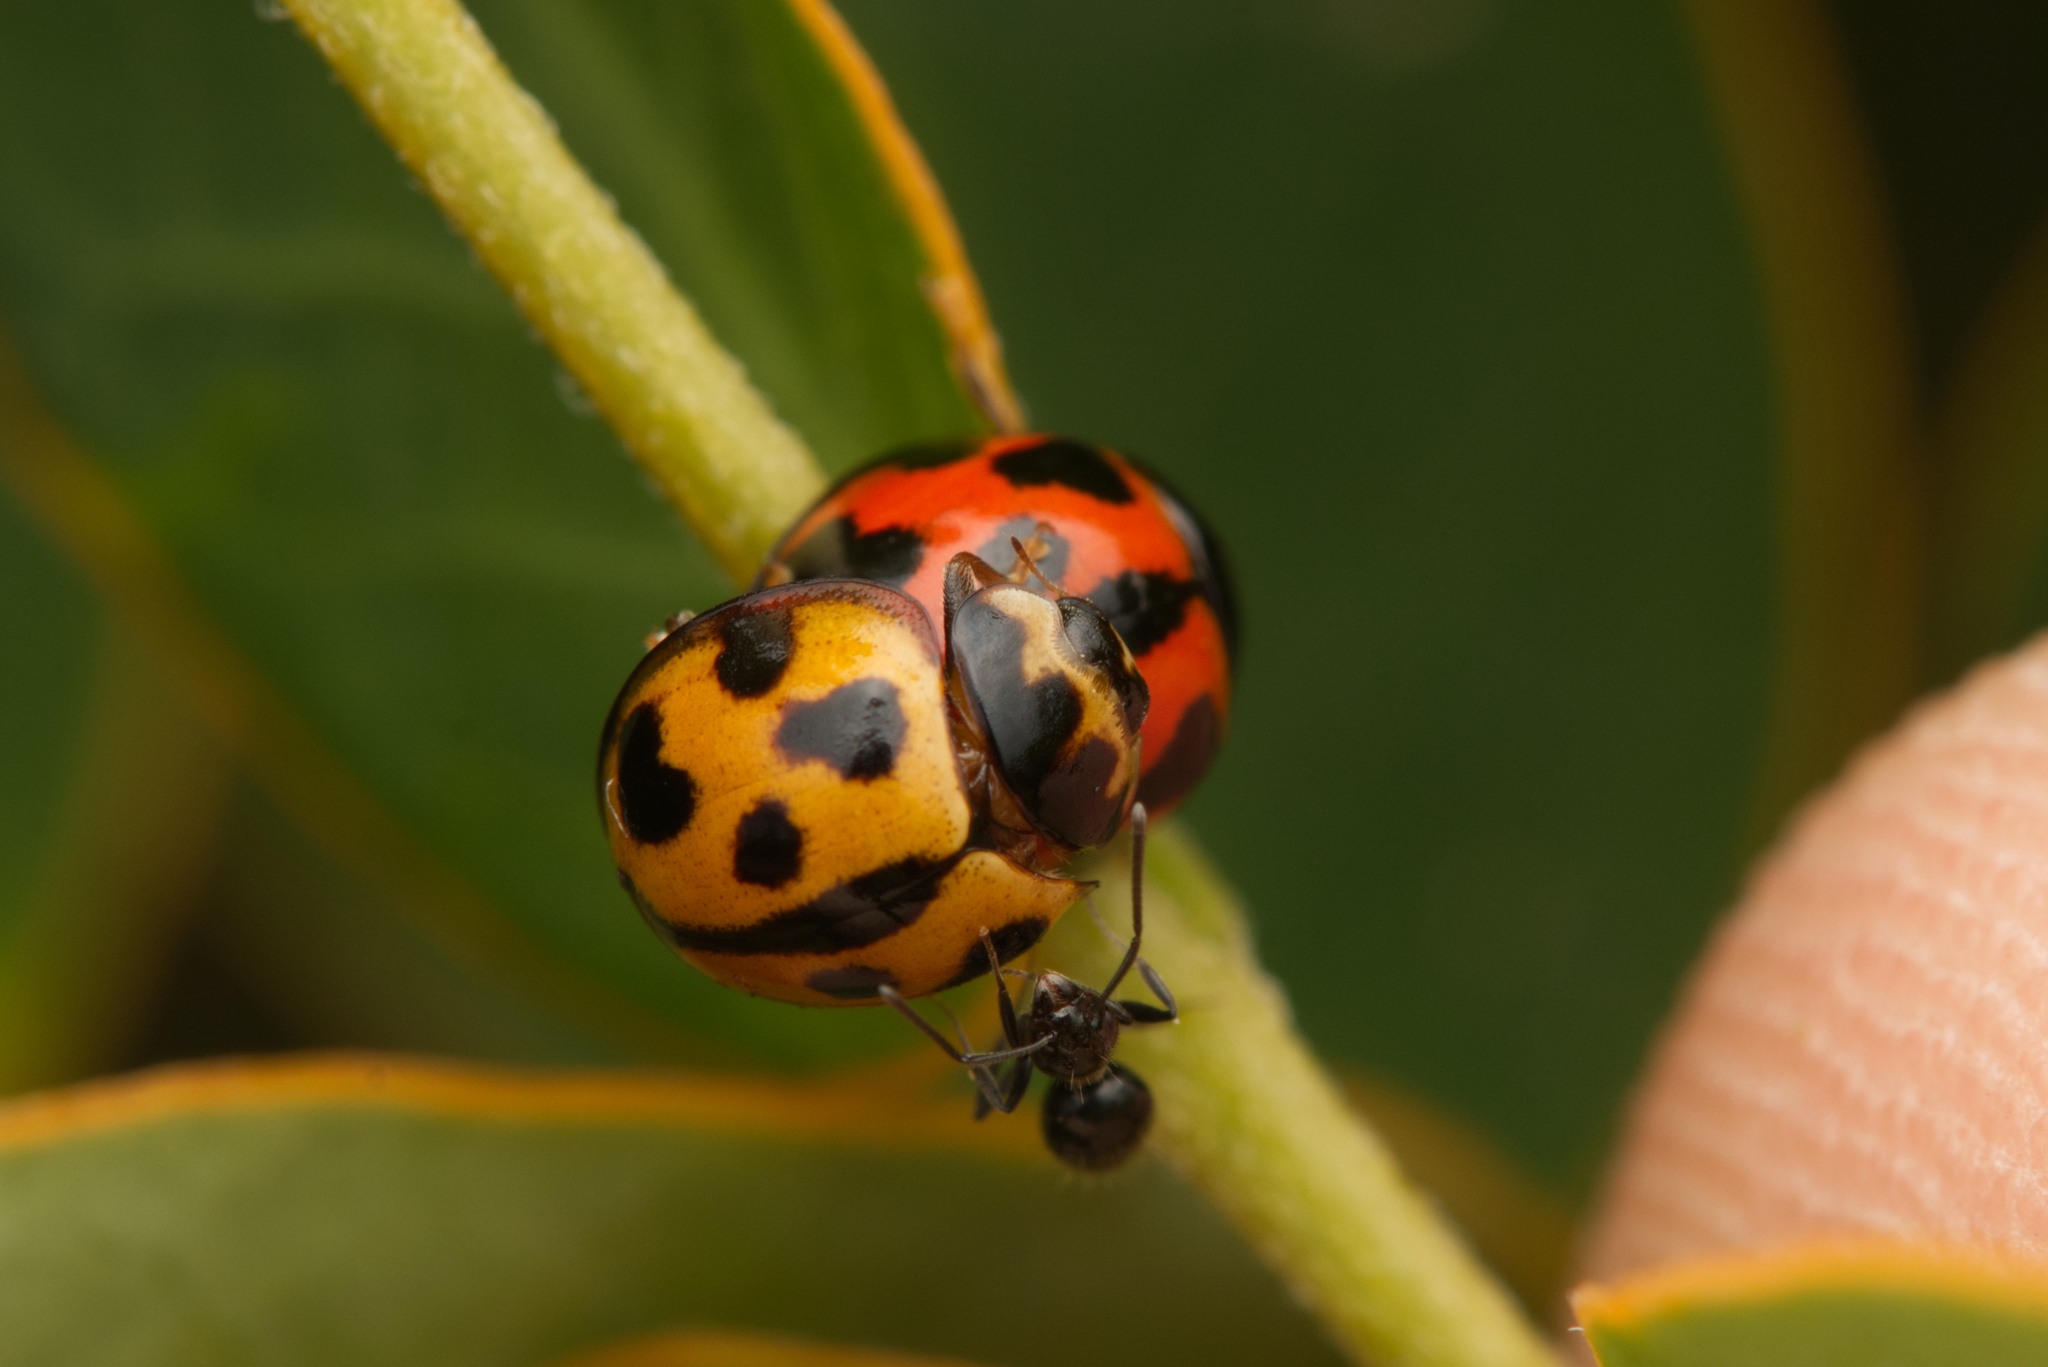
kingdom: Animalia
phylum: Arthropoda
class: Insecta
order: Coleoptera
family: Coccinellidae
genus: Coelophora
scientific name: Coelophora inaequalis
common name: Common australian lady beetle
